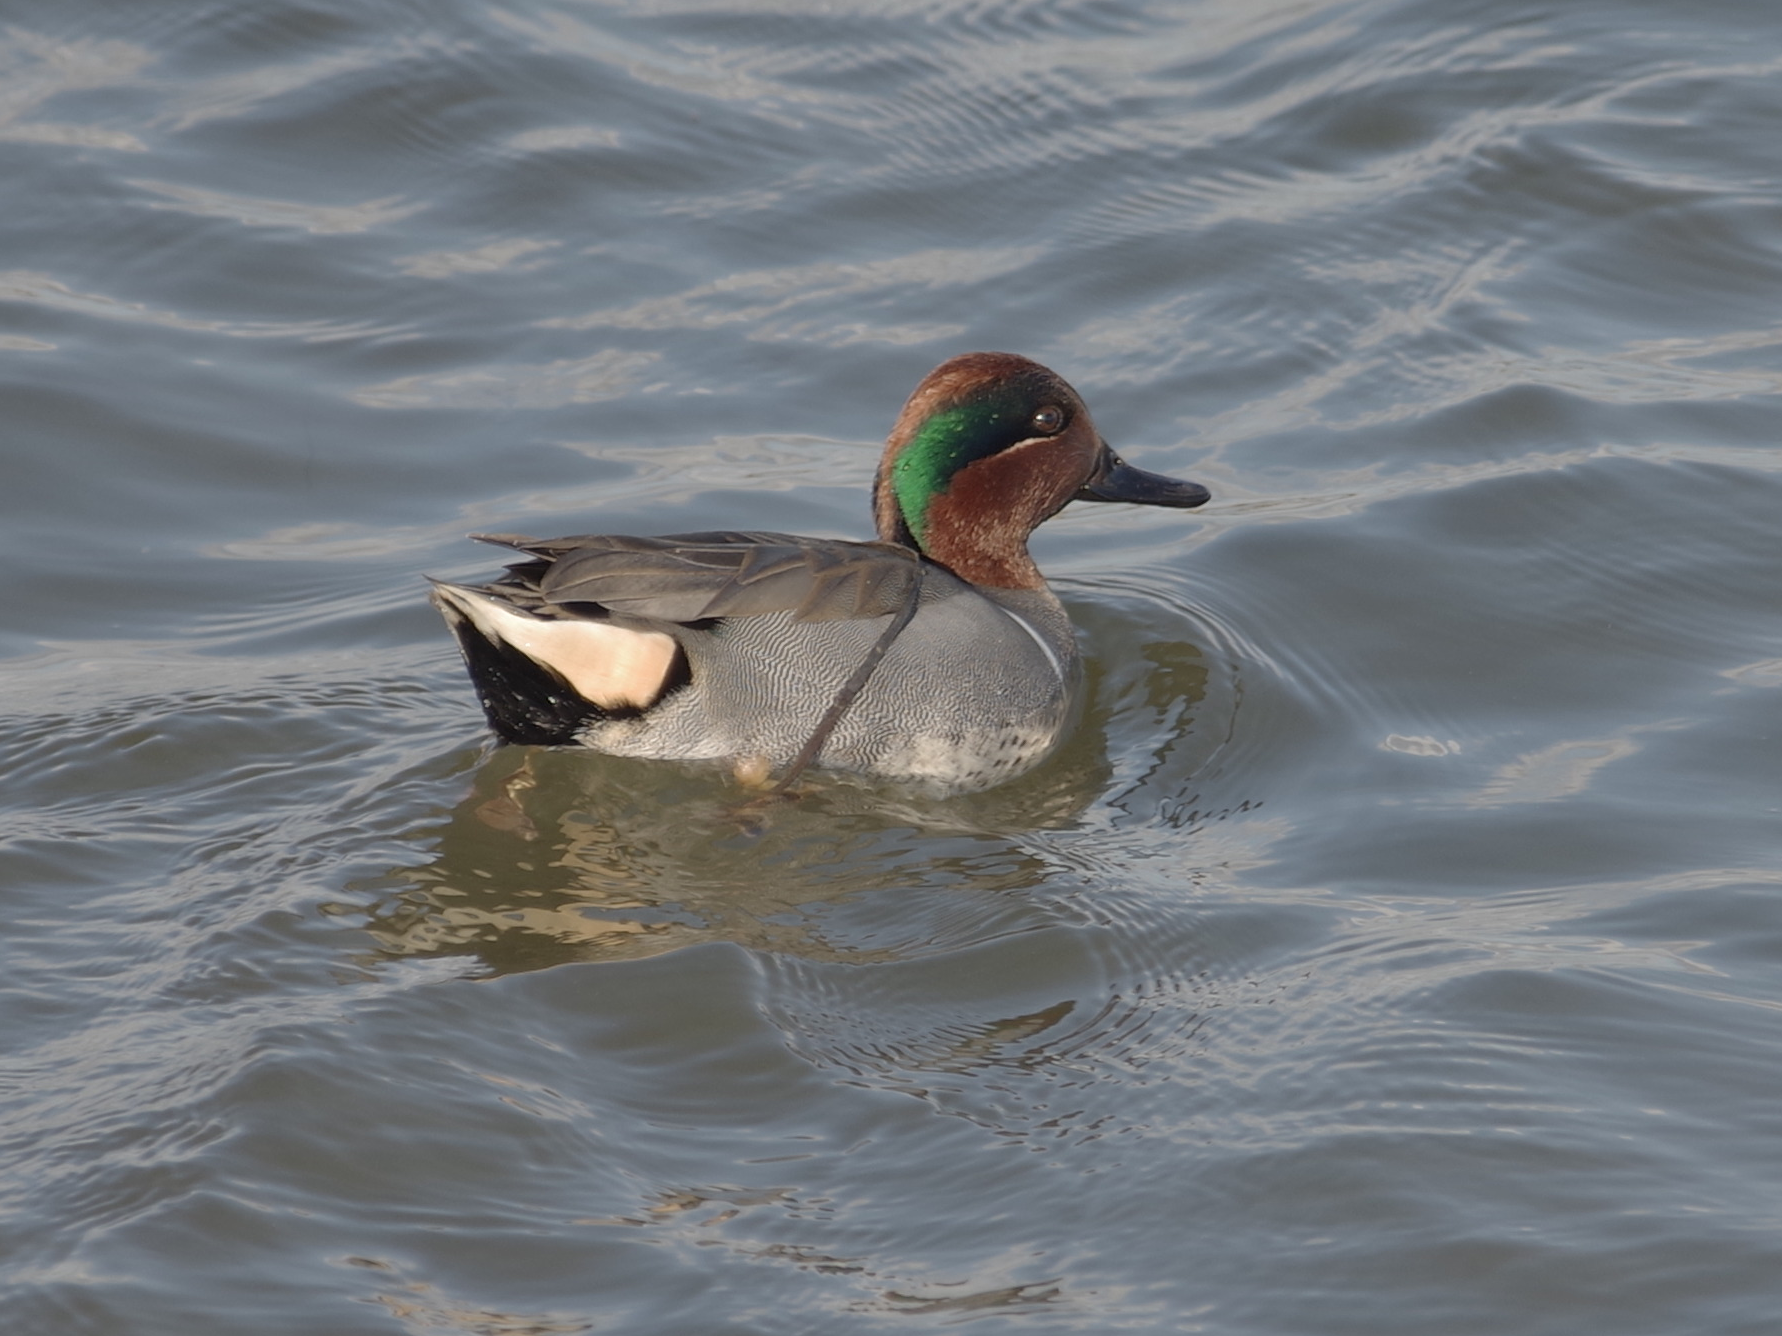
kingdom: Animalia
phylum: Chordata
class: Aves
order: Anseriformes
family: Anatidae
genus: Anas
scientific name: Anas crecca
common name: Eurasian teal
